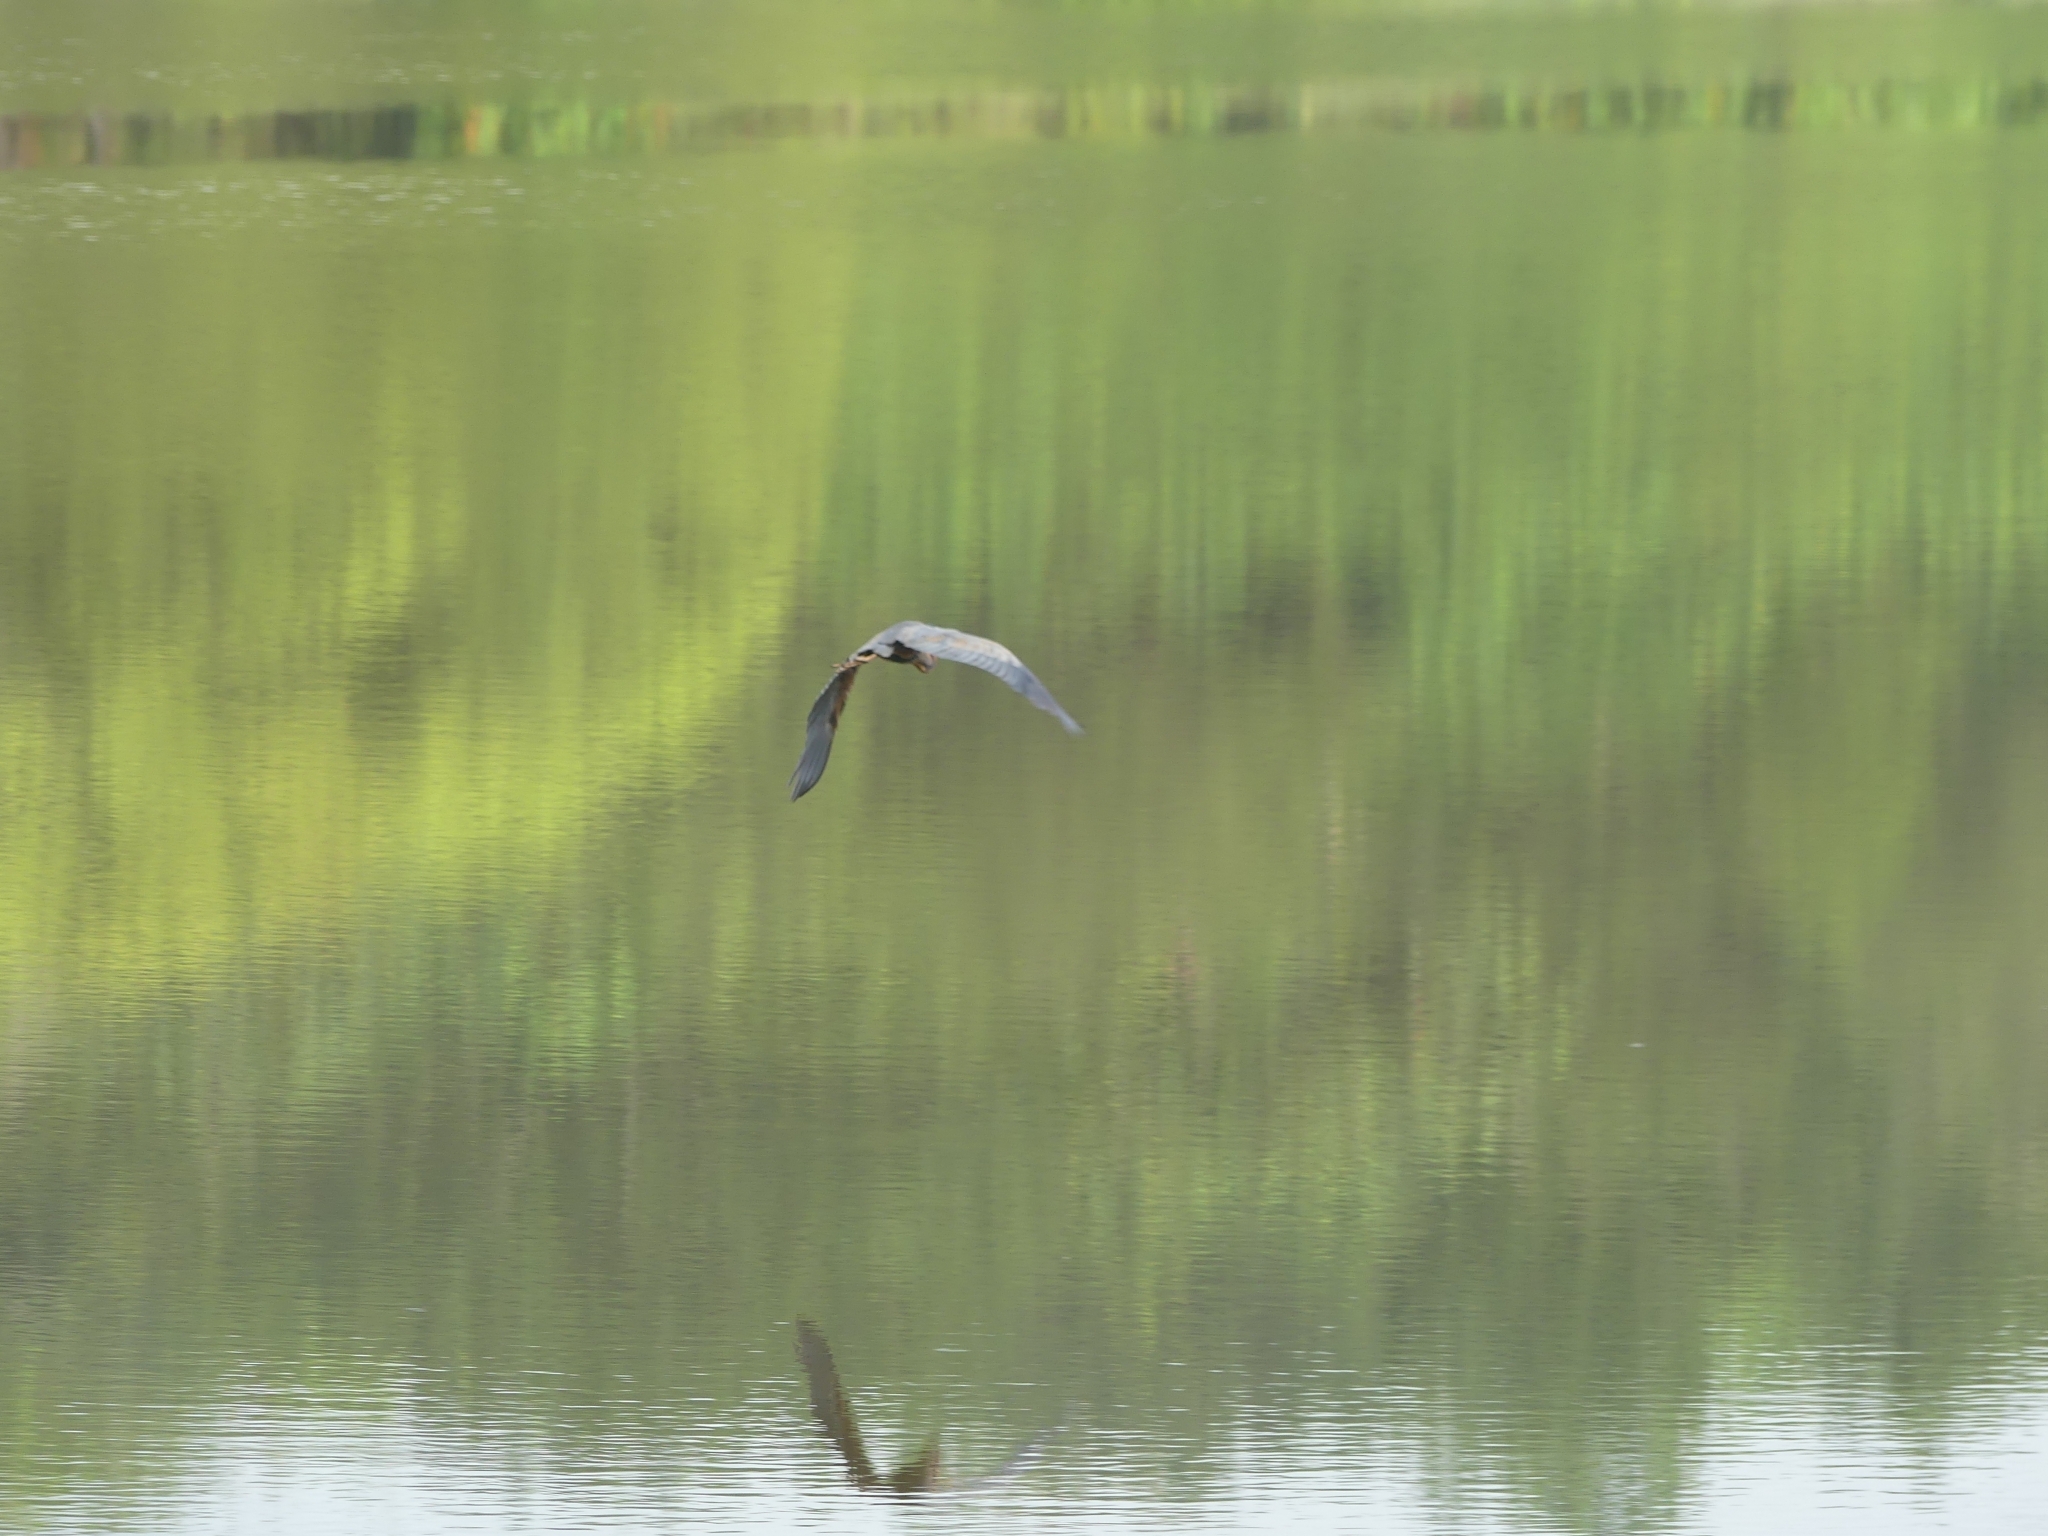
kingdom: Animalia
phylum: Chordata
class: Aves
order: Pelecaniformes
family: Ardeidae
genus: Ardea
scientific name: Ardea purpurea
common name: Purple heron
